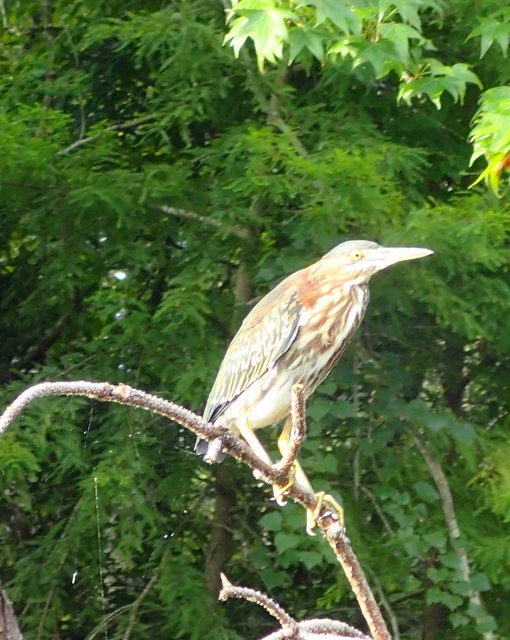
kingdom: Animalia
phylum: Chordata
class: Aves
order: Pelecaniformes
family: Ardeidae
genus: Butorides
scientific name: Butorides virescens
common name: Green heron
